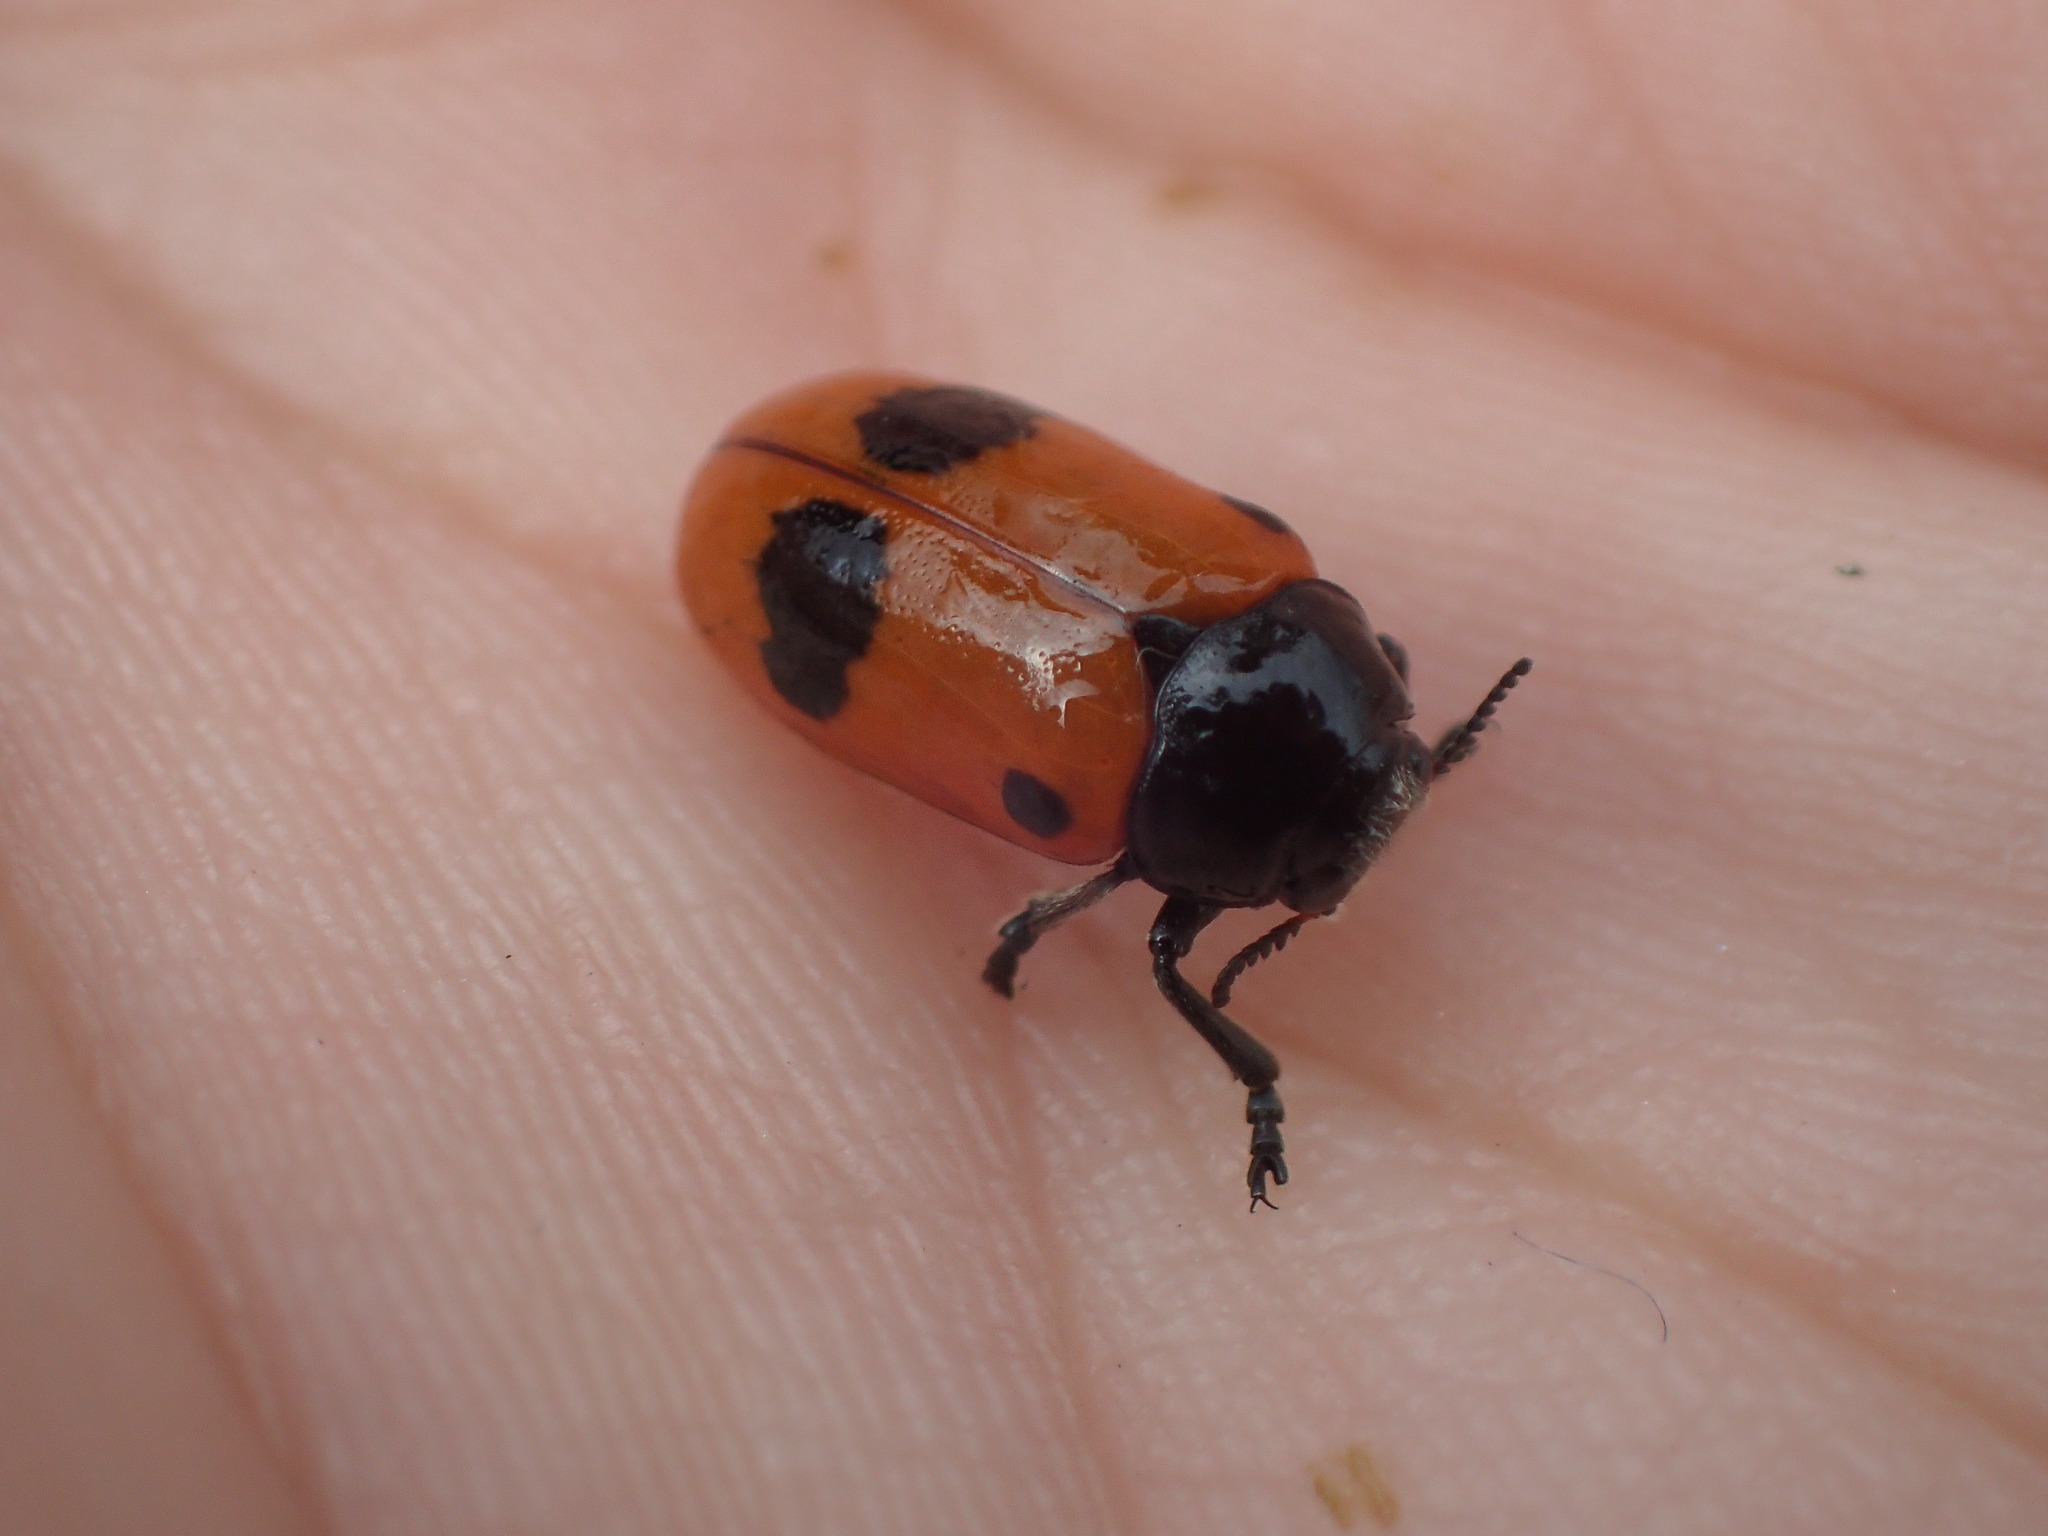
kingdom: Animalia
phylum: Arthropoda
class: Insecta
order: Coleoptera
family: Chrysomelidae
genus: Clytra
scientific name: Clytra laeviuscula
